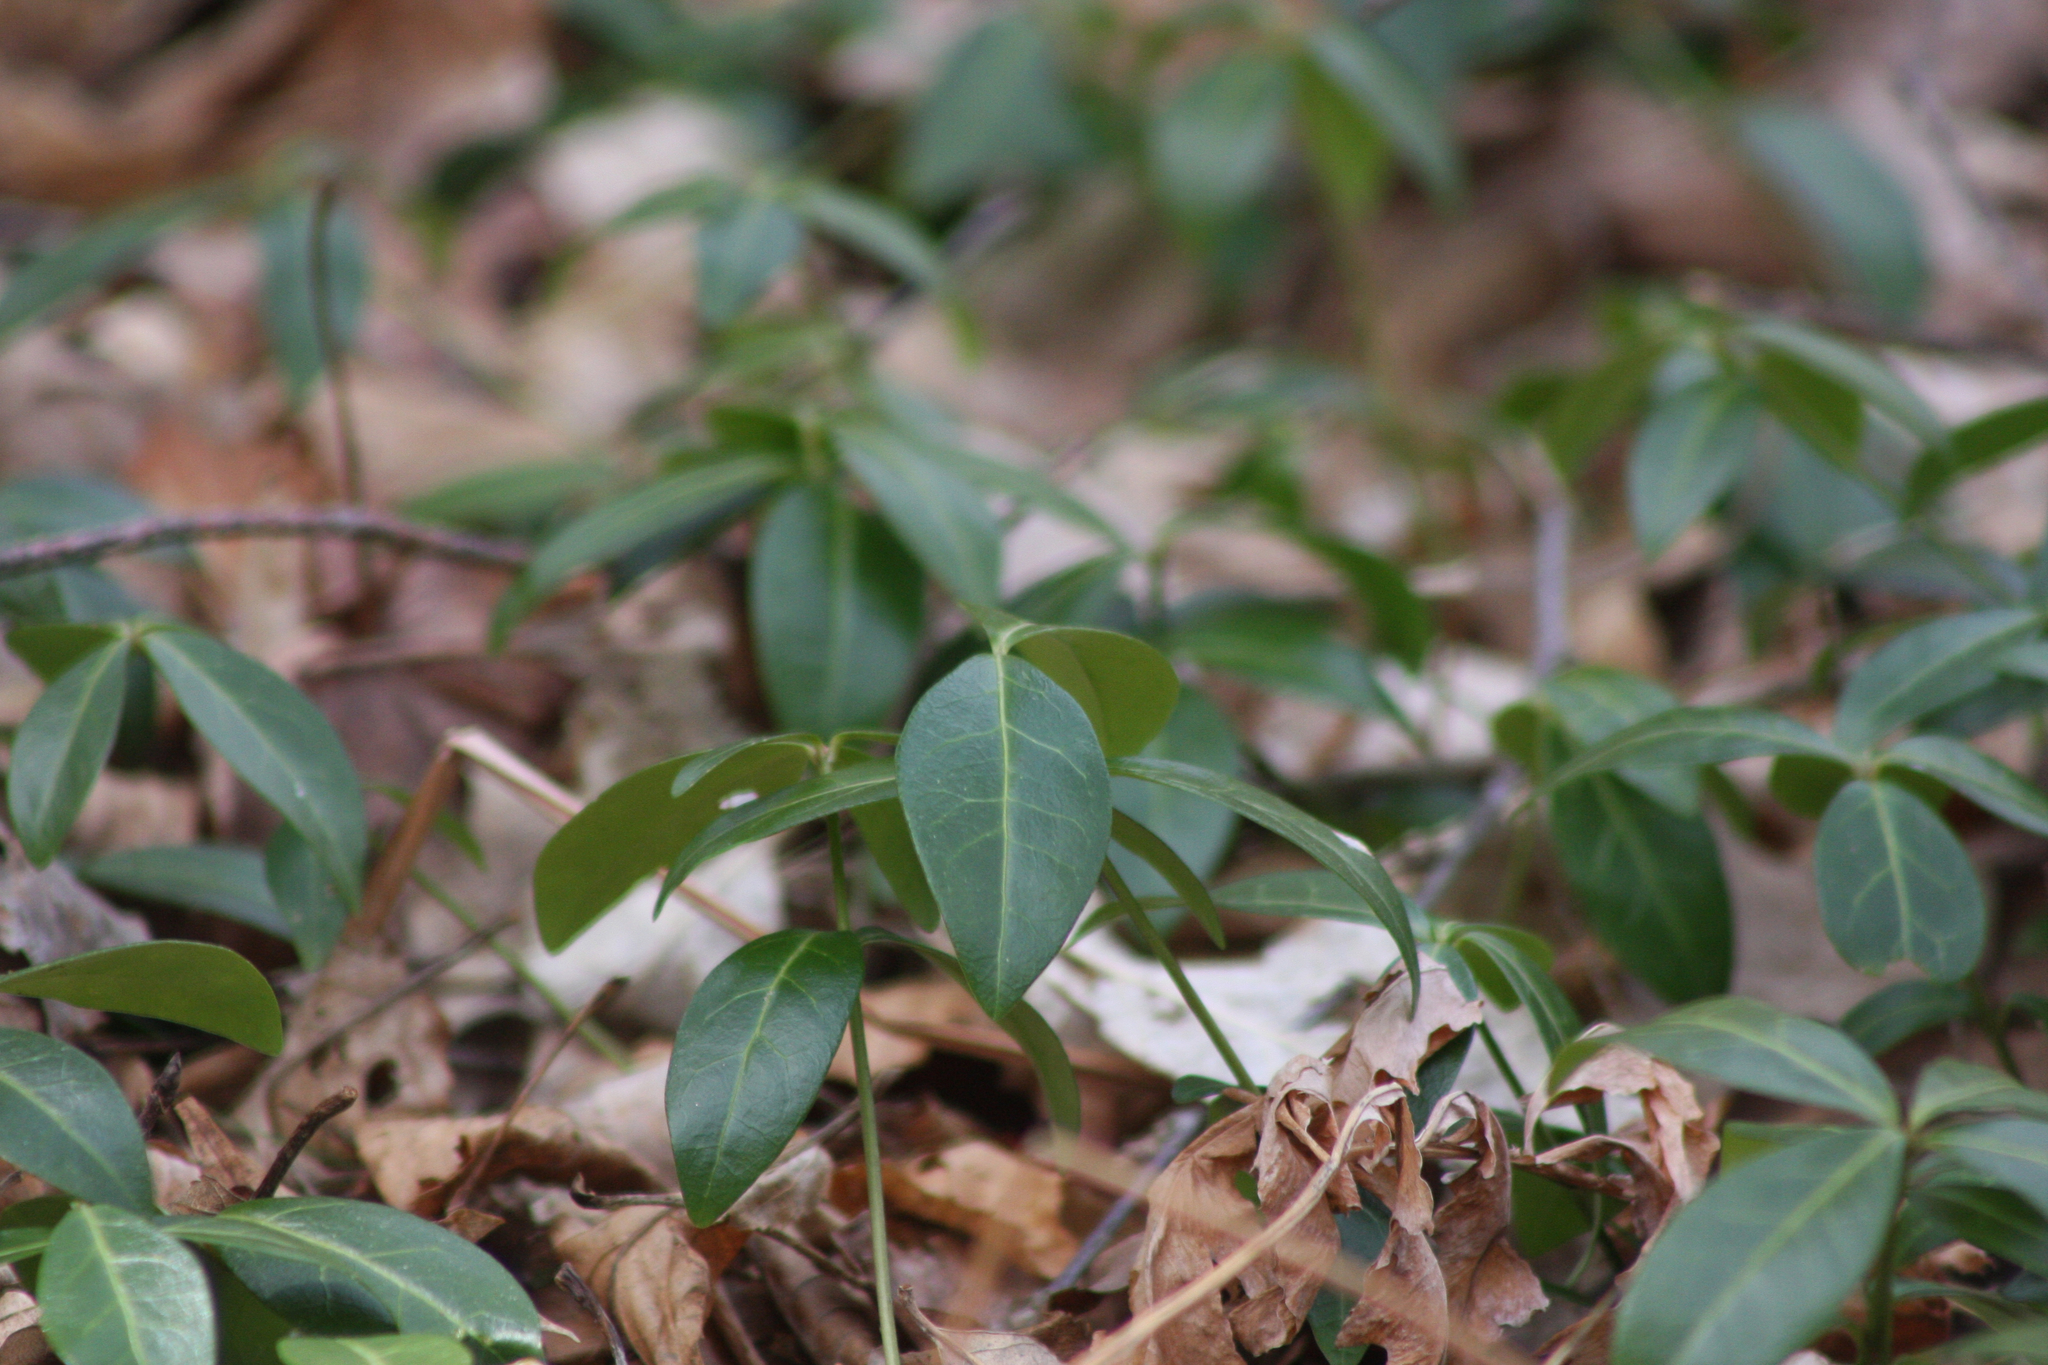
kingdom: Plantae
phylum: Tracheophyta
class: Magnoliopsida
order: Gentianales
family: Apocynaceae
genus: Vinca
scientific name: Vinca minor
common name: Lesser periwinkle
